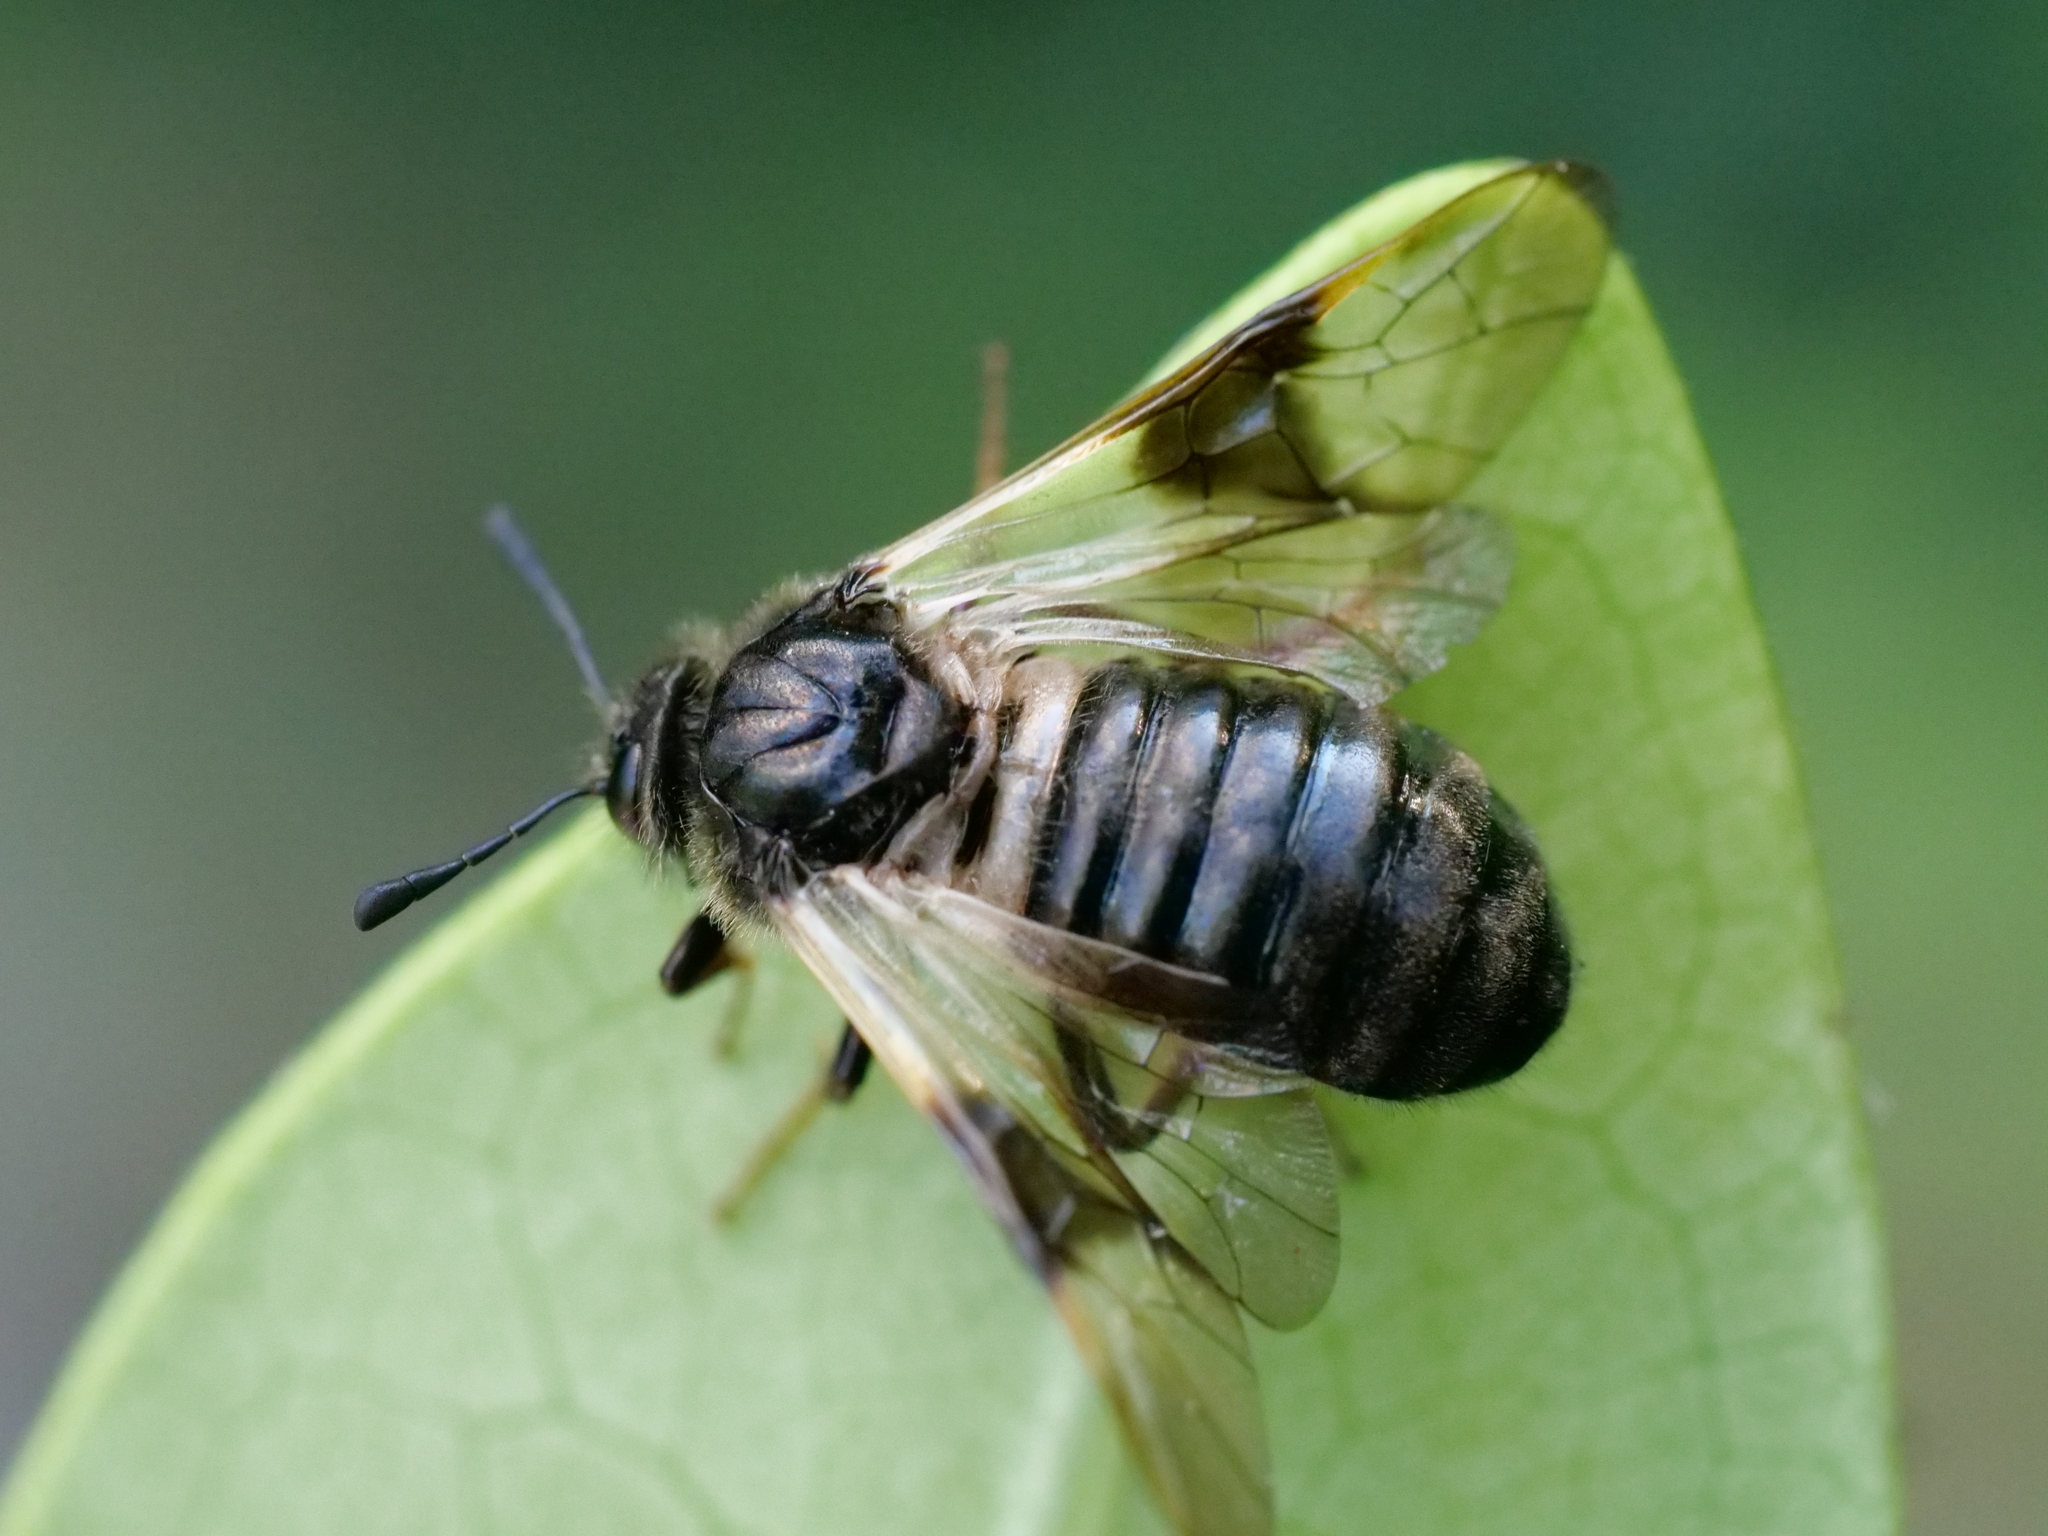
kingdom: Animalia
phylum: Arthropoda
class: Insecta
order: Hymenoptera
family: Cimbicidae
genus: Abia
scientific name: Abia fasciata
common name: Banded honeysuckle sawfly
